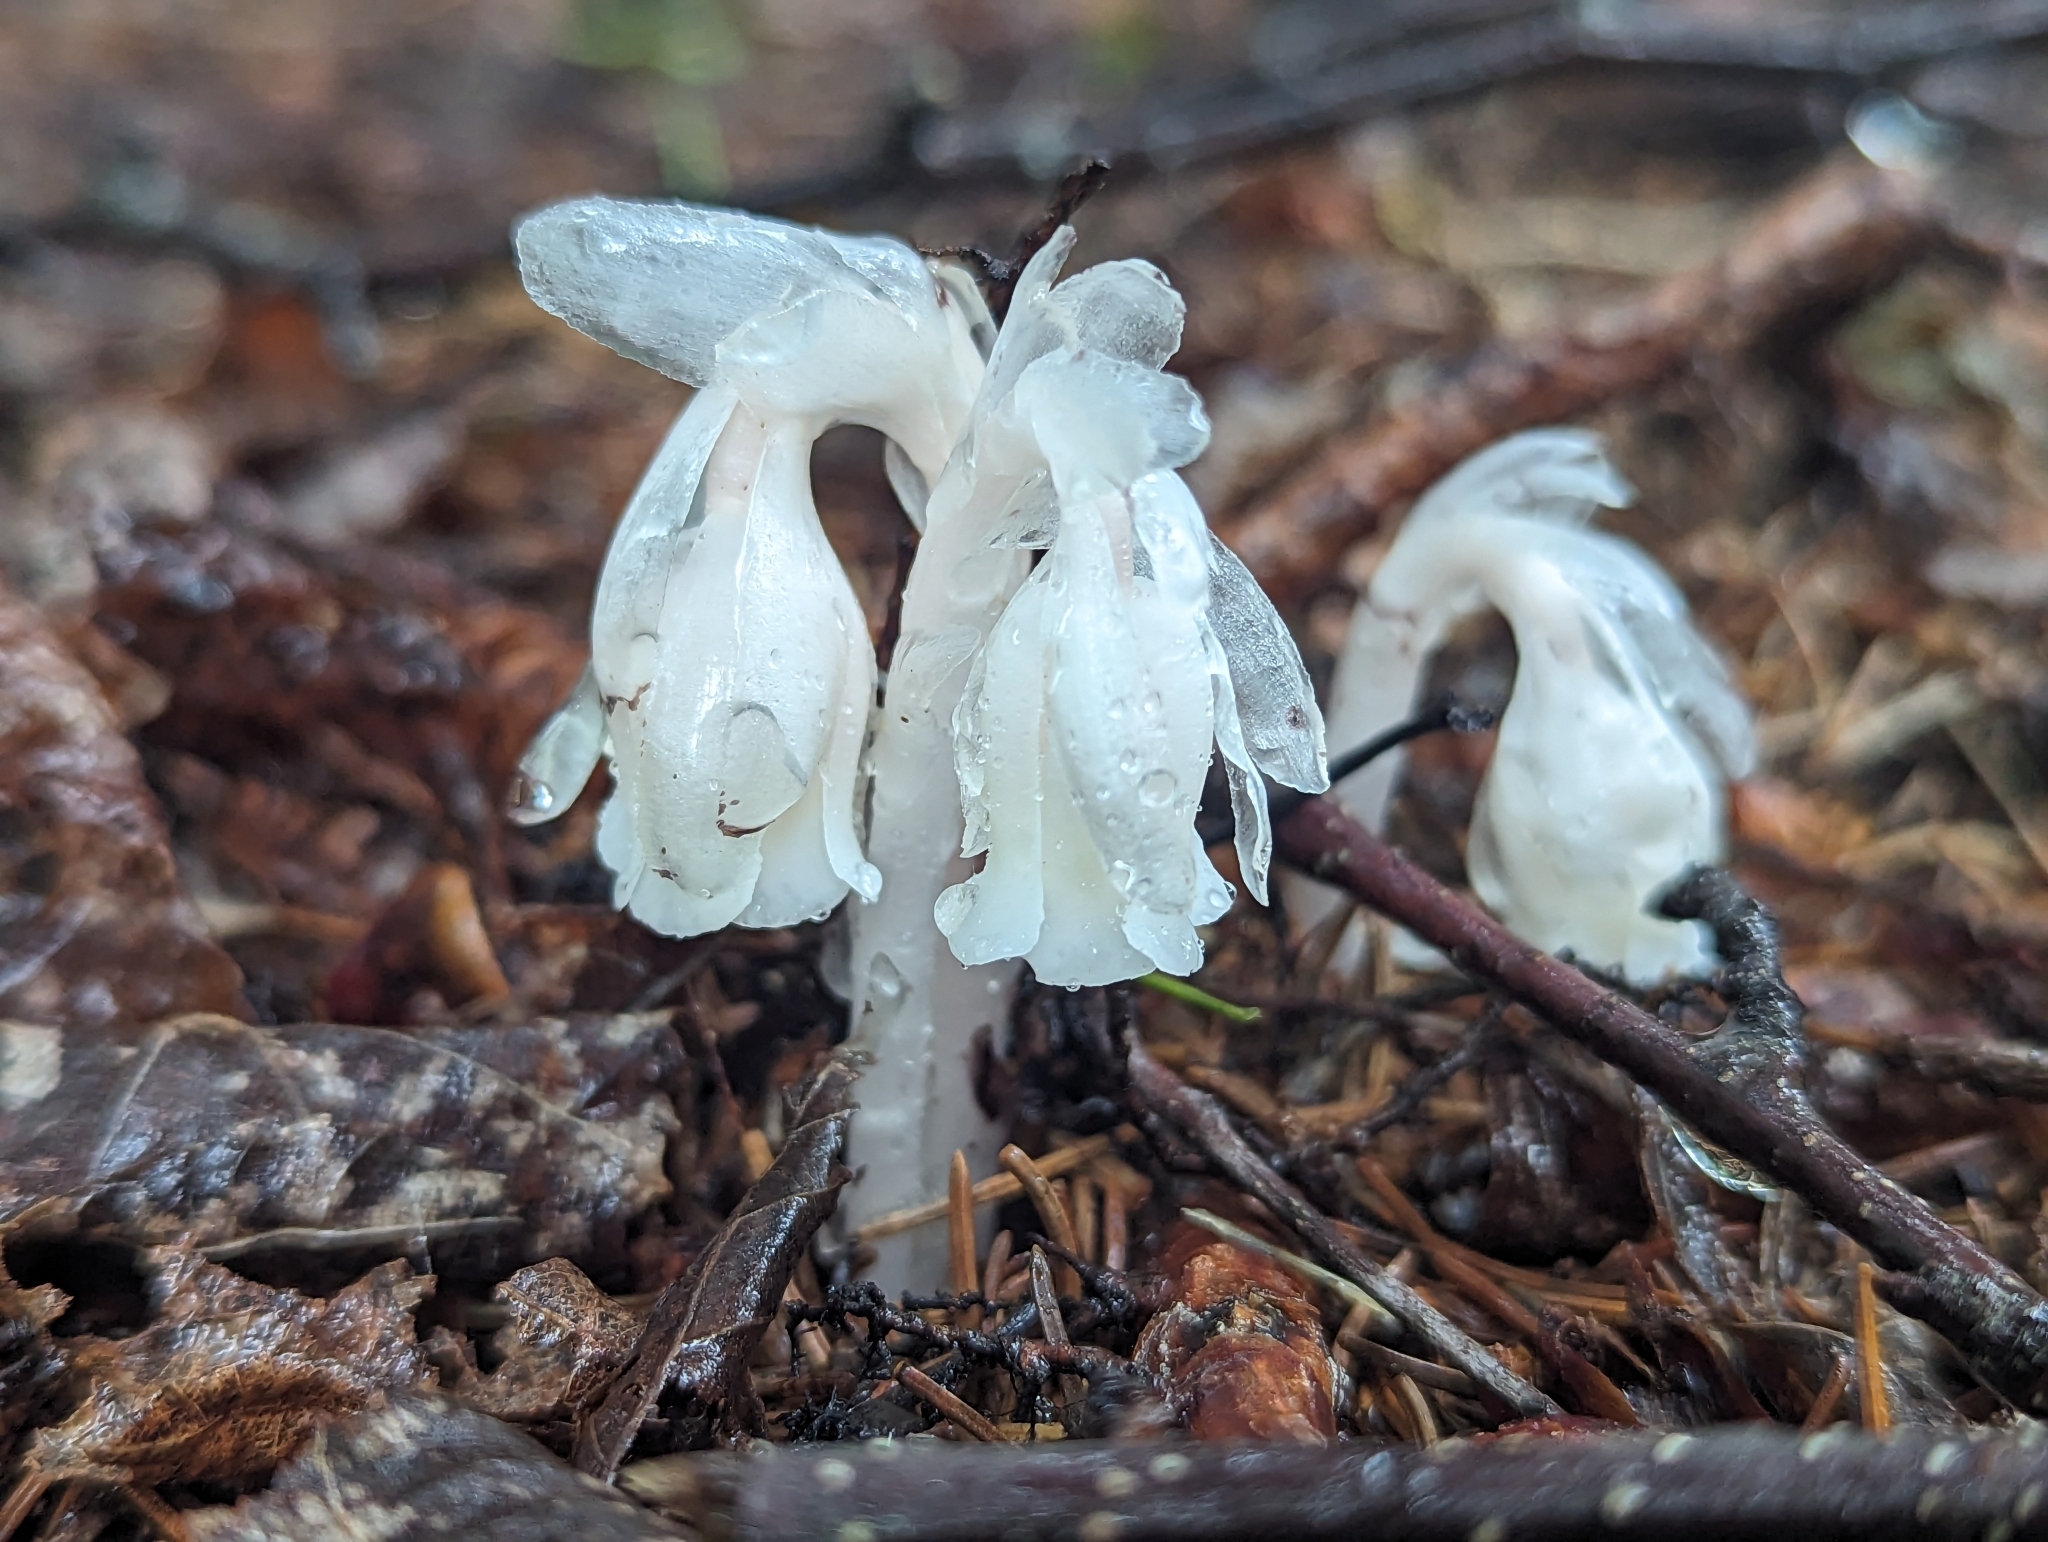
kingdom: Plantae
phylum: Tracheophyta
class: Magnoliopsida
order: Ericales
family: Ericaceae
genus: Monotropa
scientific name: Monotropa uniflora
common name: Convulsion root
